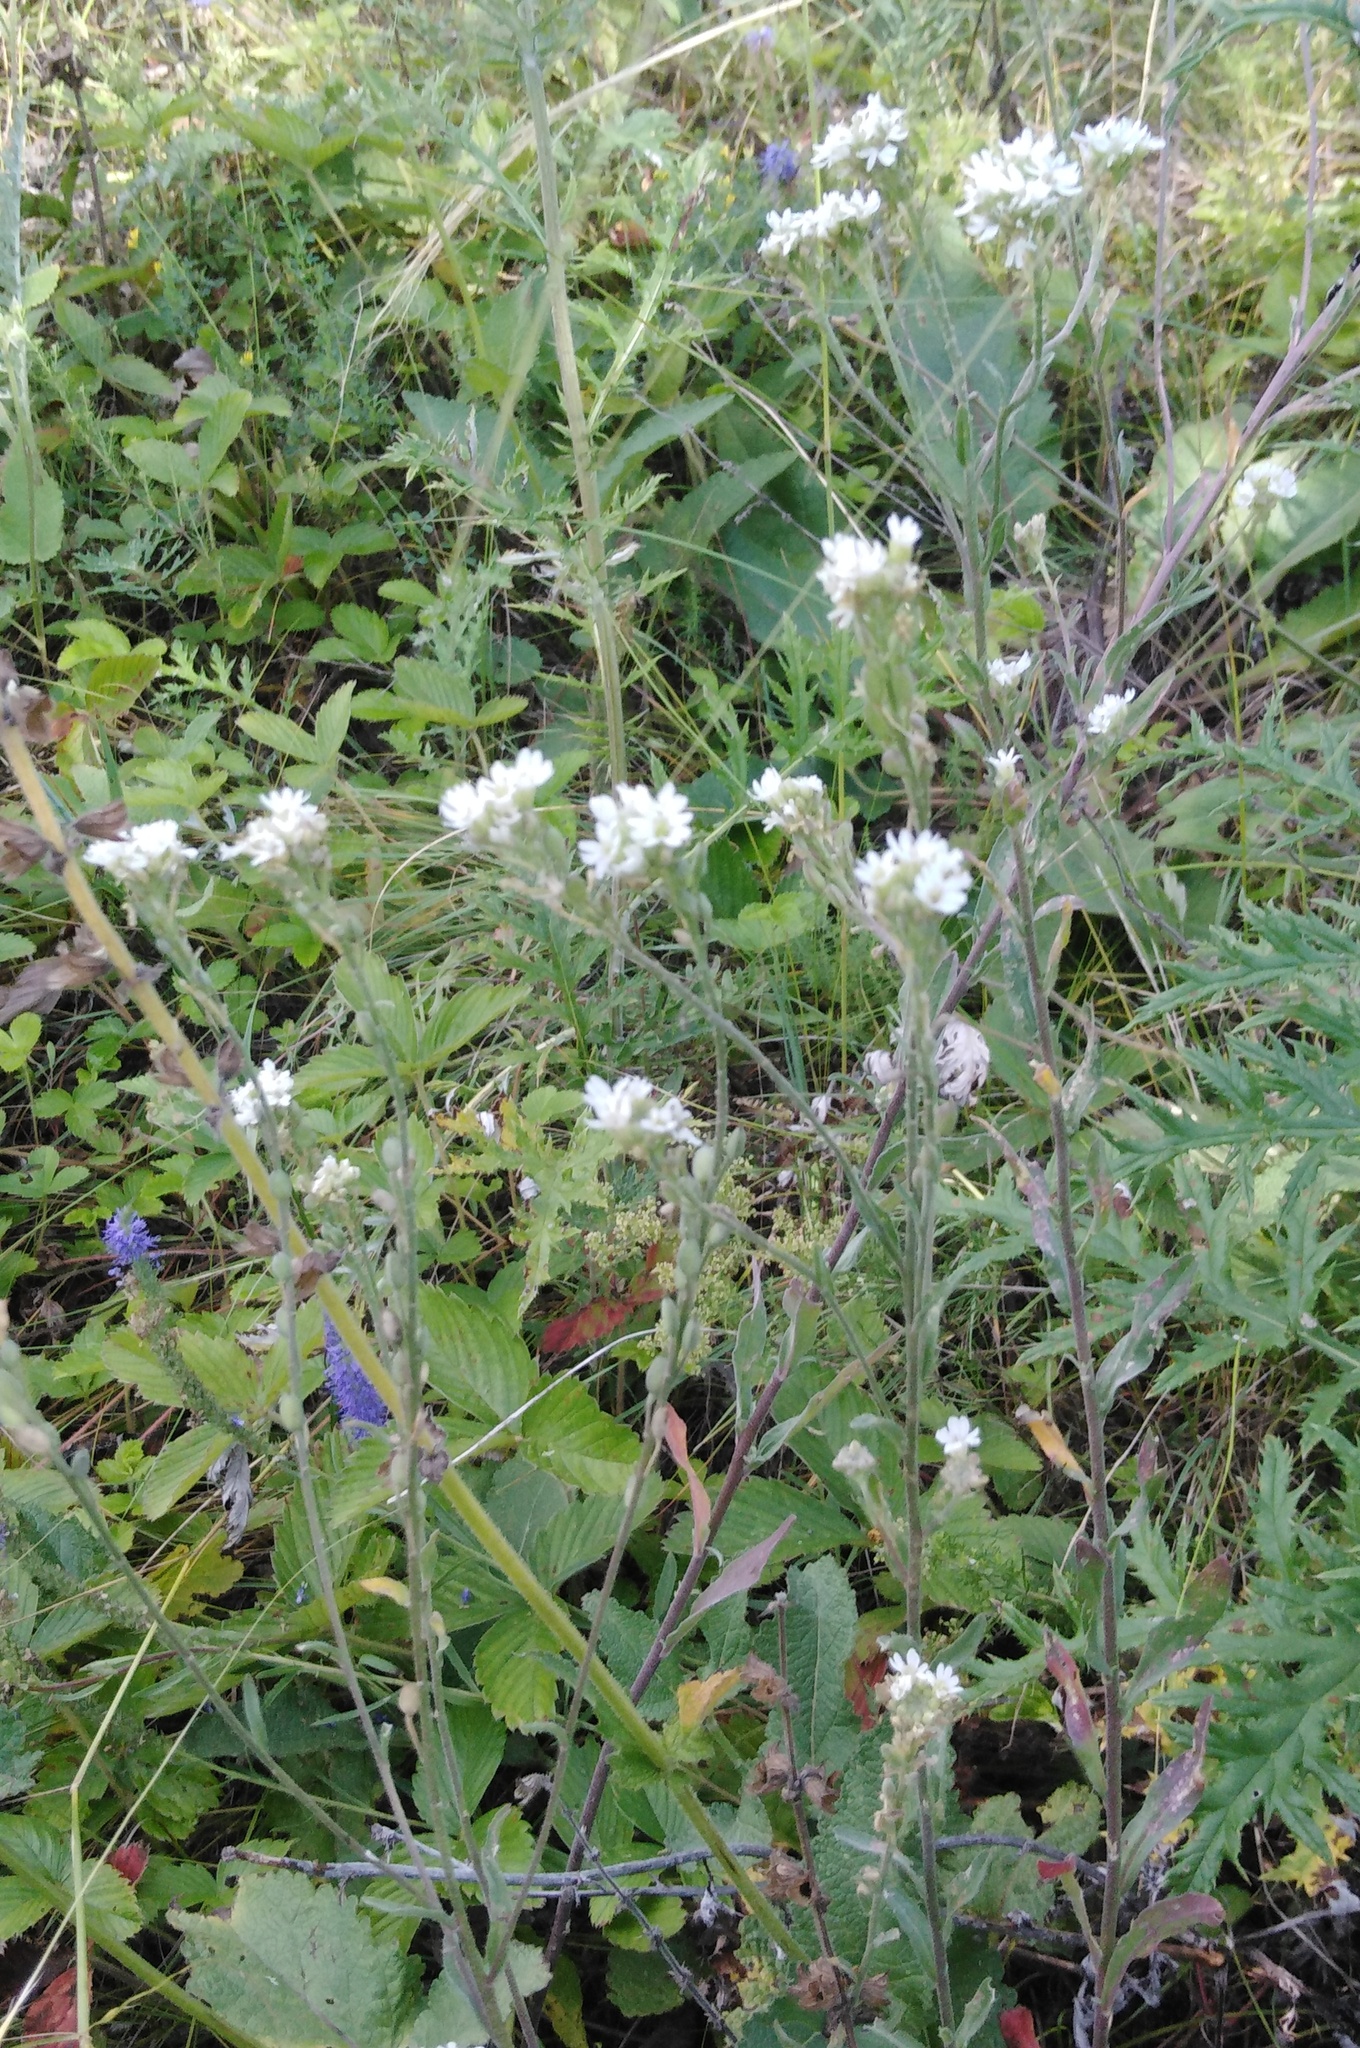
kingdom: Plantae
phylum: Tracheophyta
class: Magnoliopsida
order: Brassicales
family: Brassicaceae
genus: Berteroa
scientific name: Berteroa incana
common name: Hoary alison
